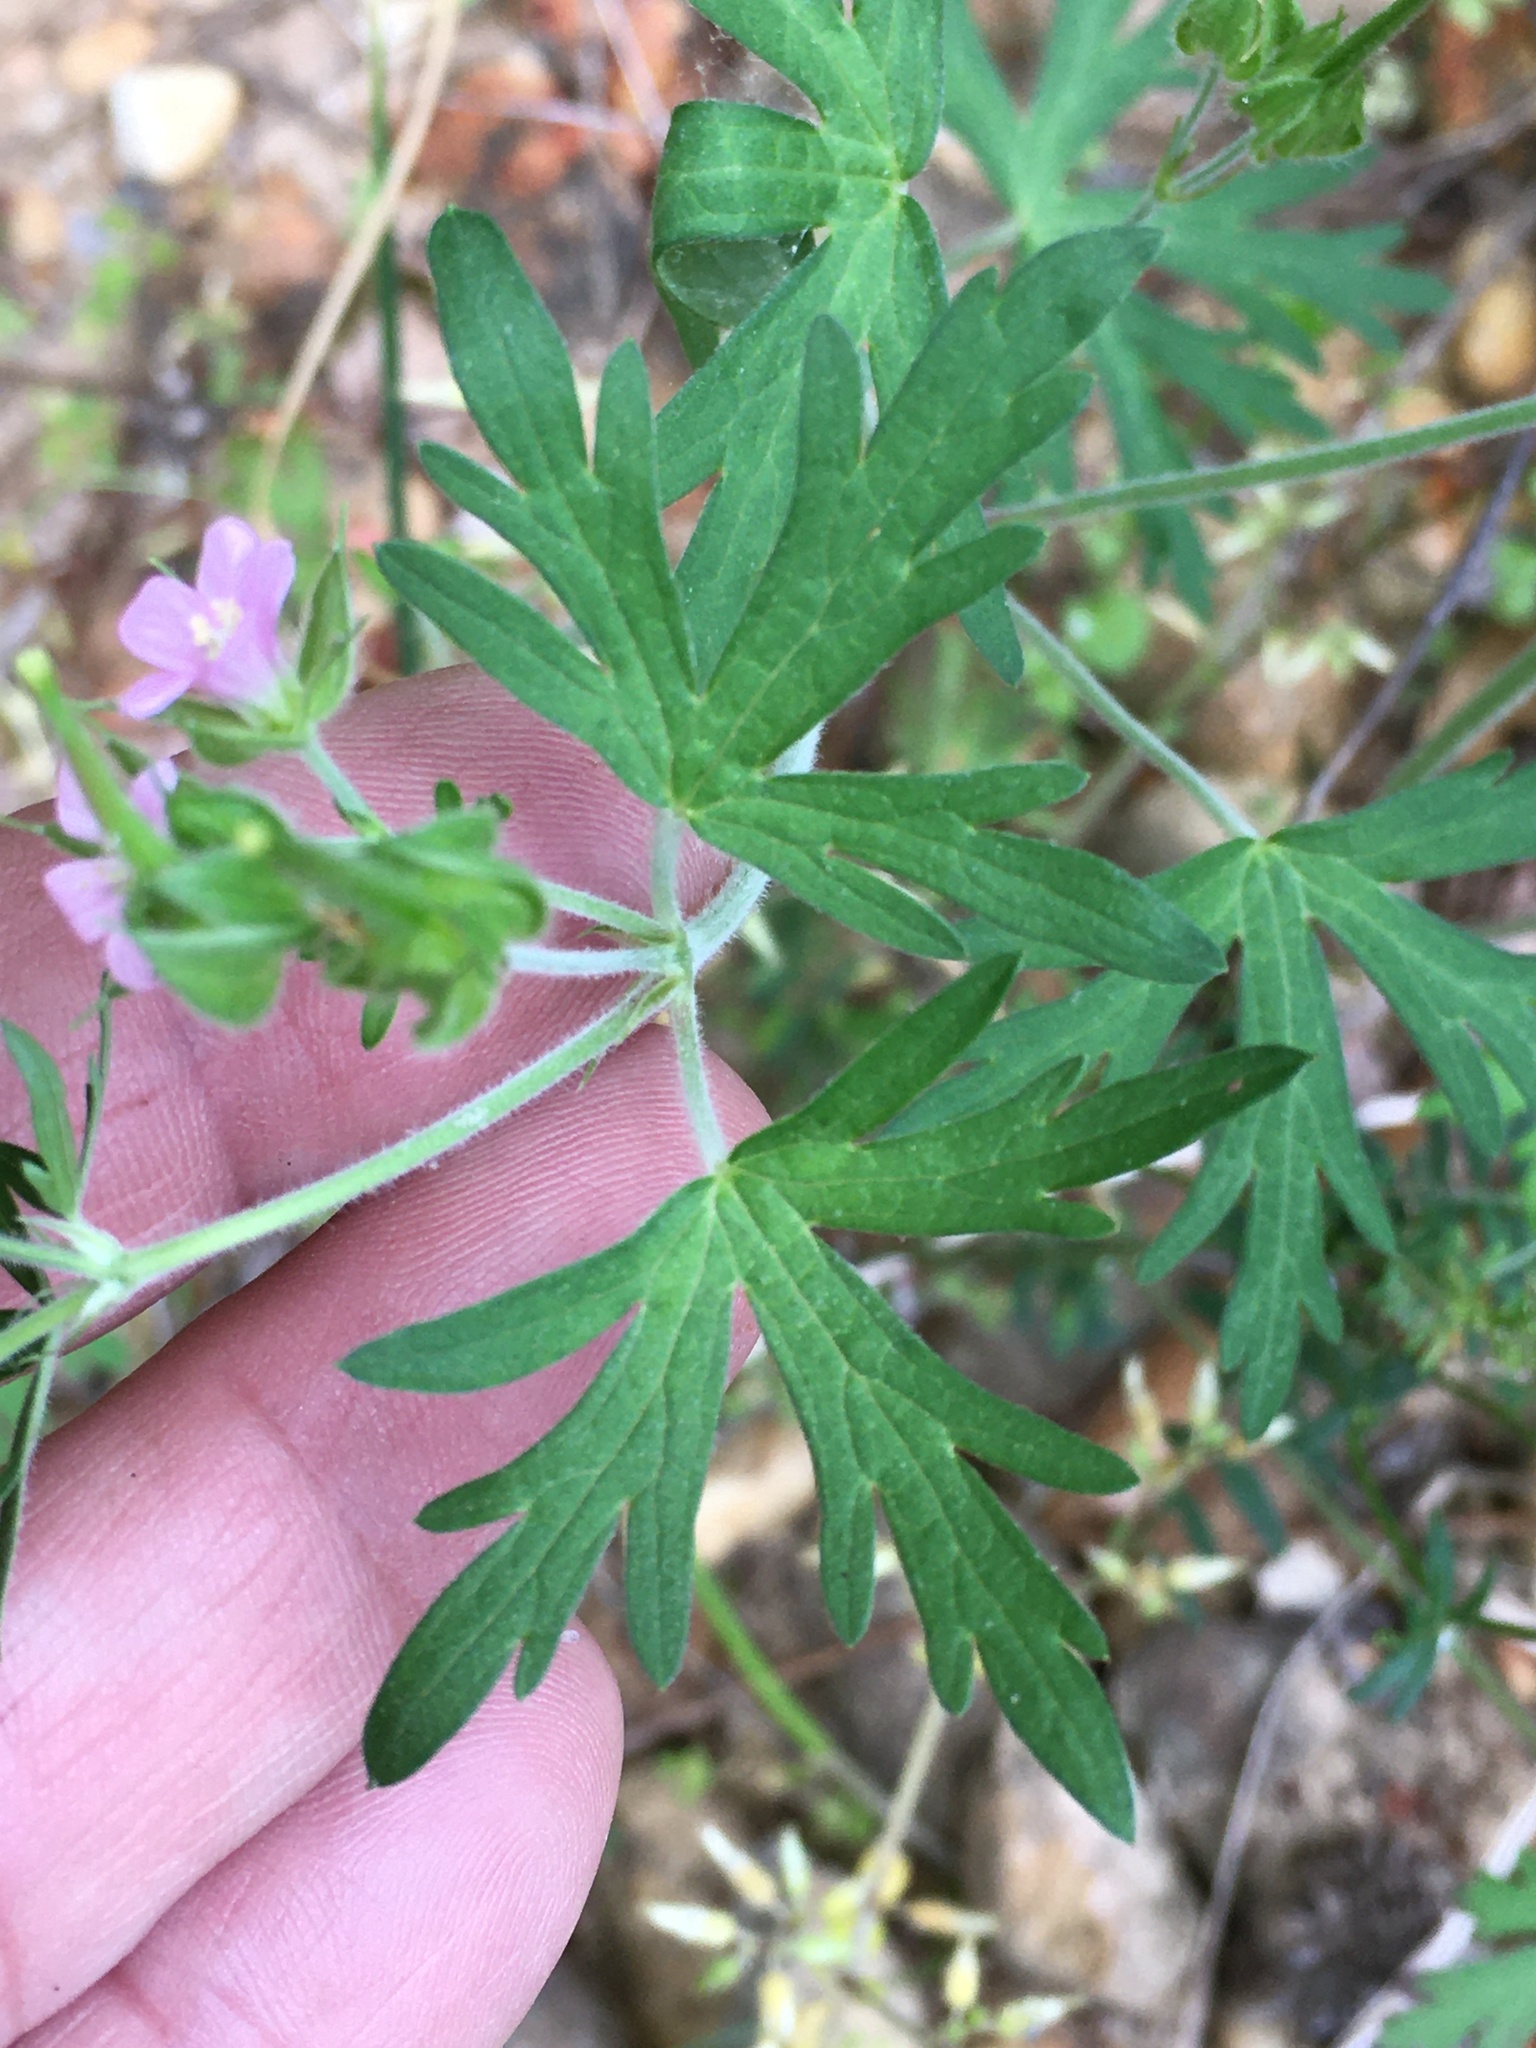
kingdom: Plantae
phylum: Tracheophyta
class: Magnoliopsida
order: Geraniales
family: Geraniaceae
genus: Geranium
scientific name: Geranium carolinianum
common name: Carolina crane's-bill
